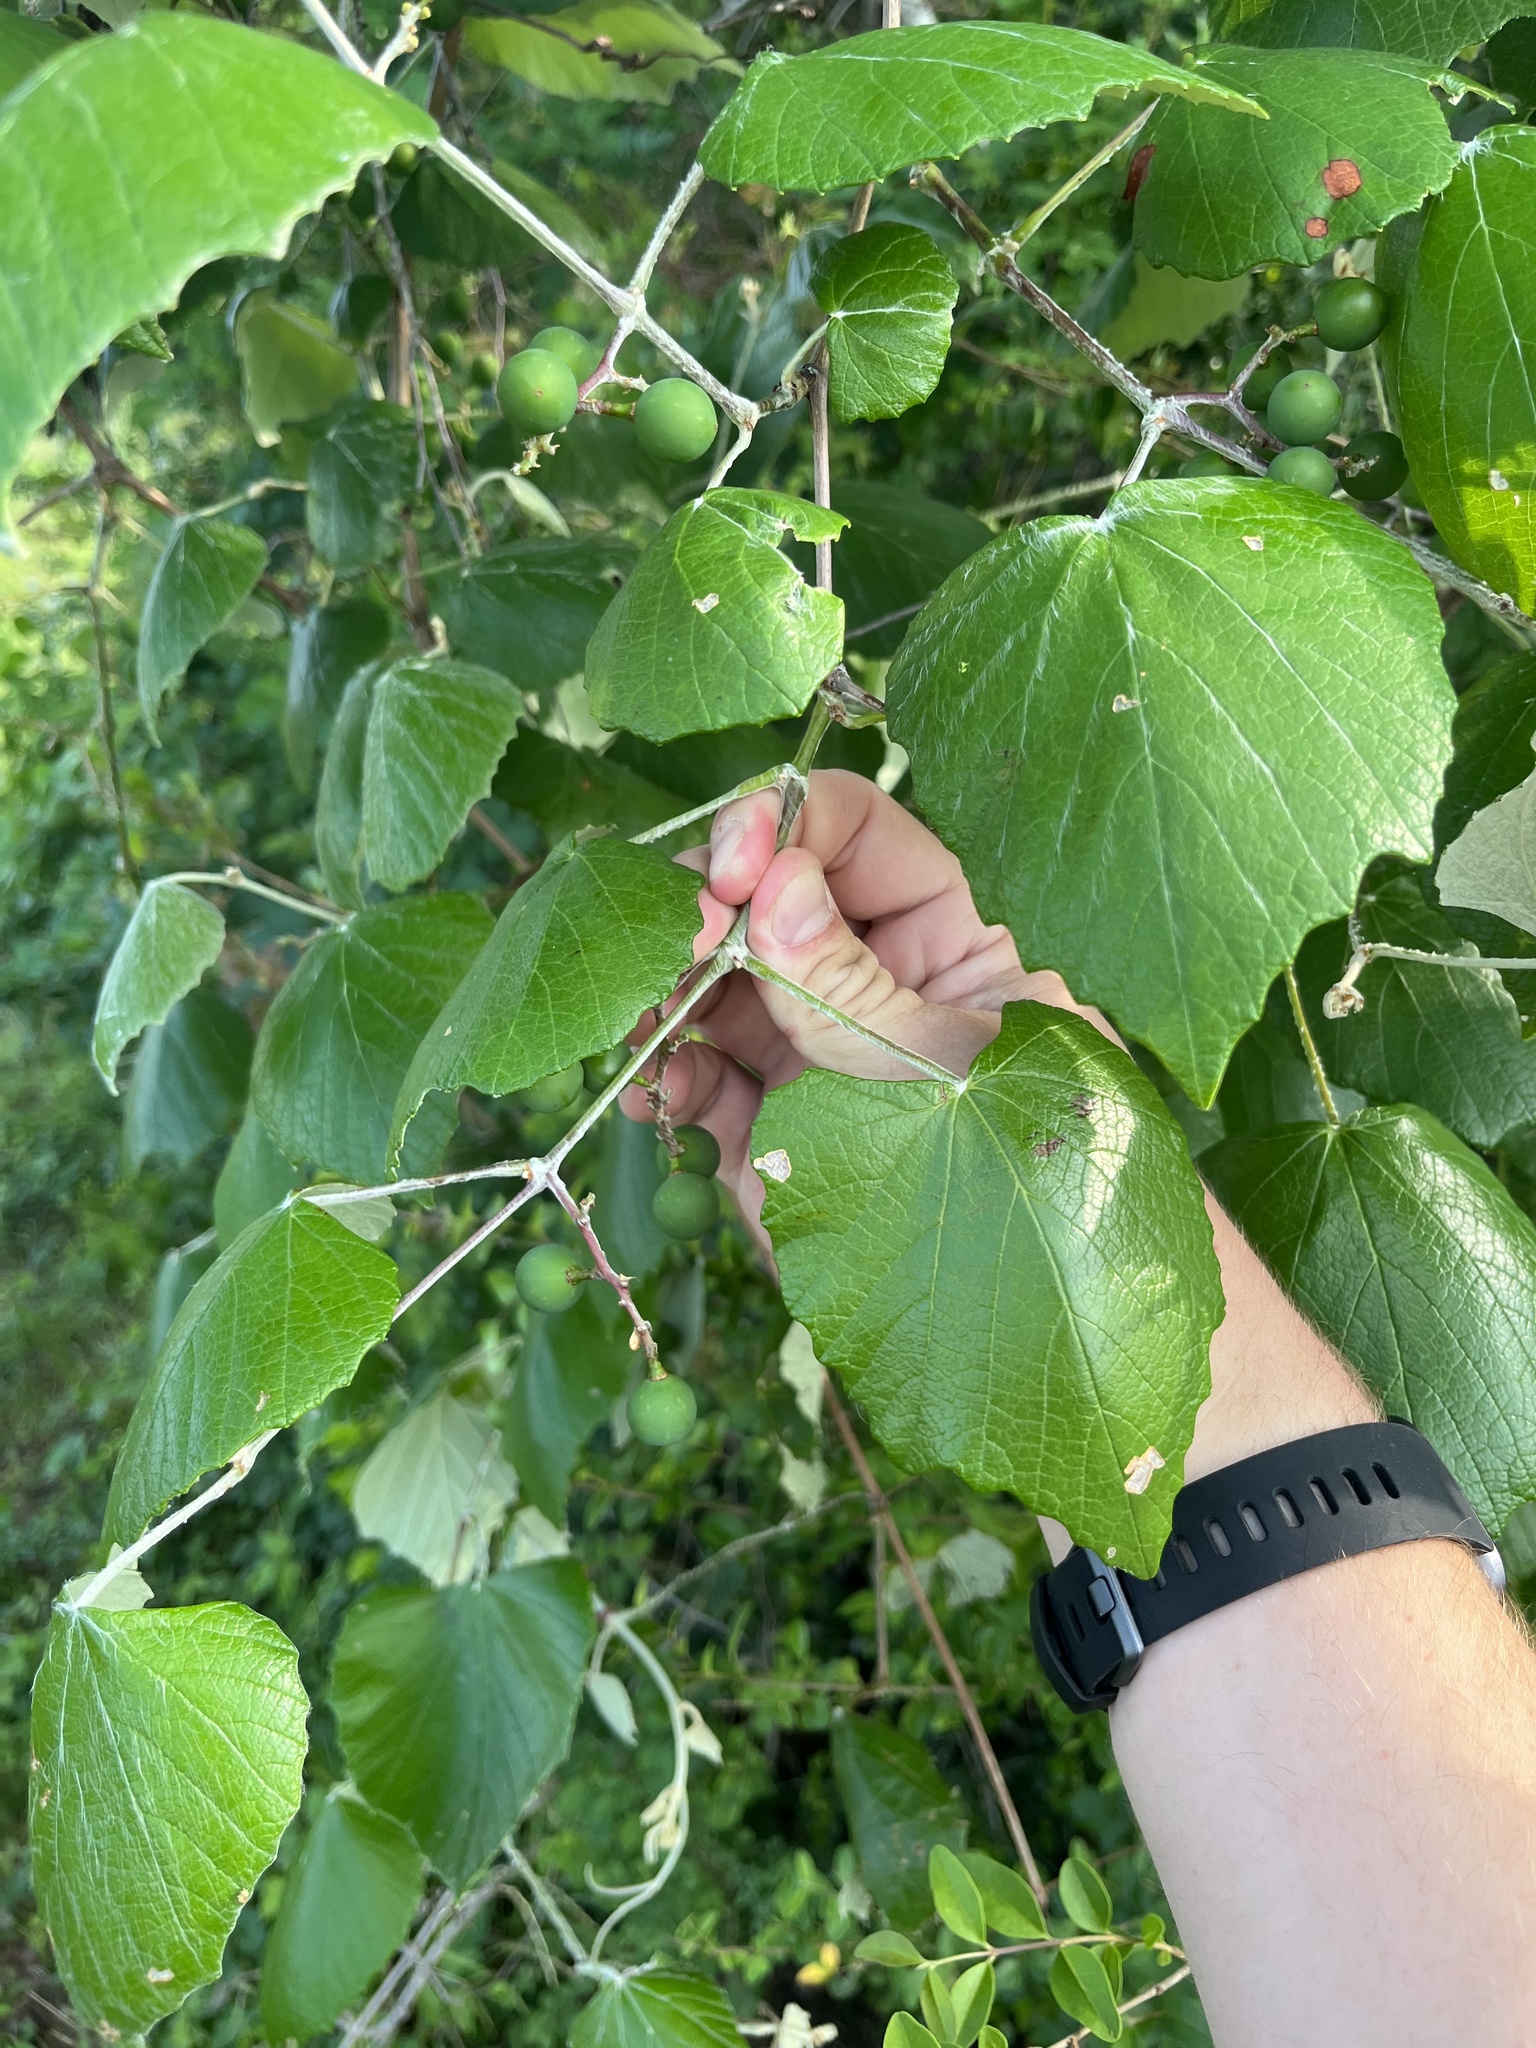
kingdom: Plantae
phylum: Tracheophyta
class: Magnoliopsida
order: Vitales
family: Vitaceae
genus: Vitis
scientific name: Vitis mustangensis
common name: Mustang grape
